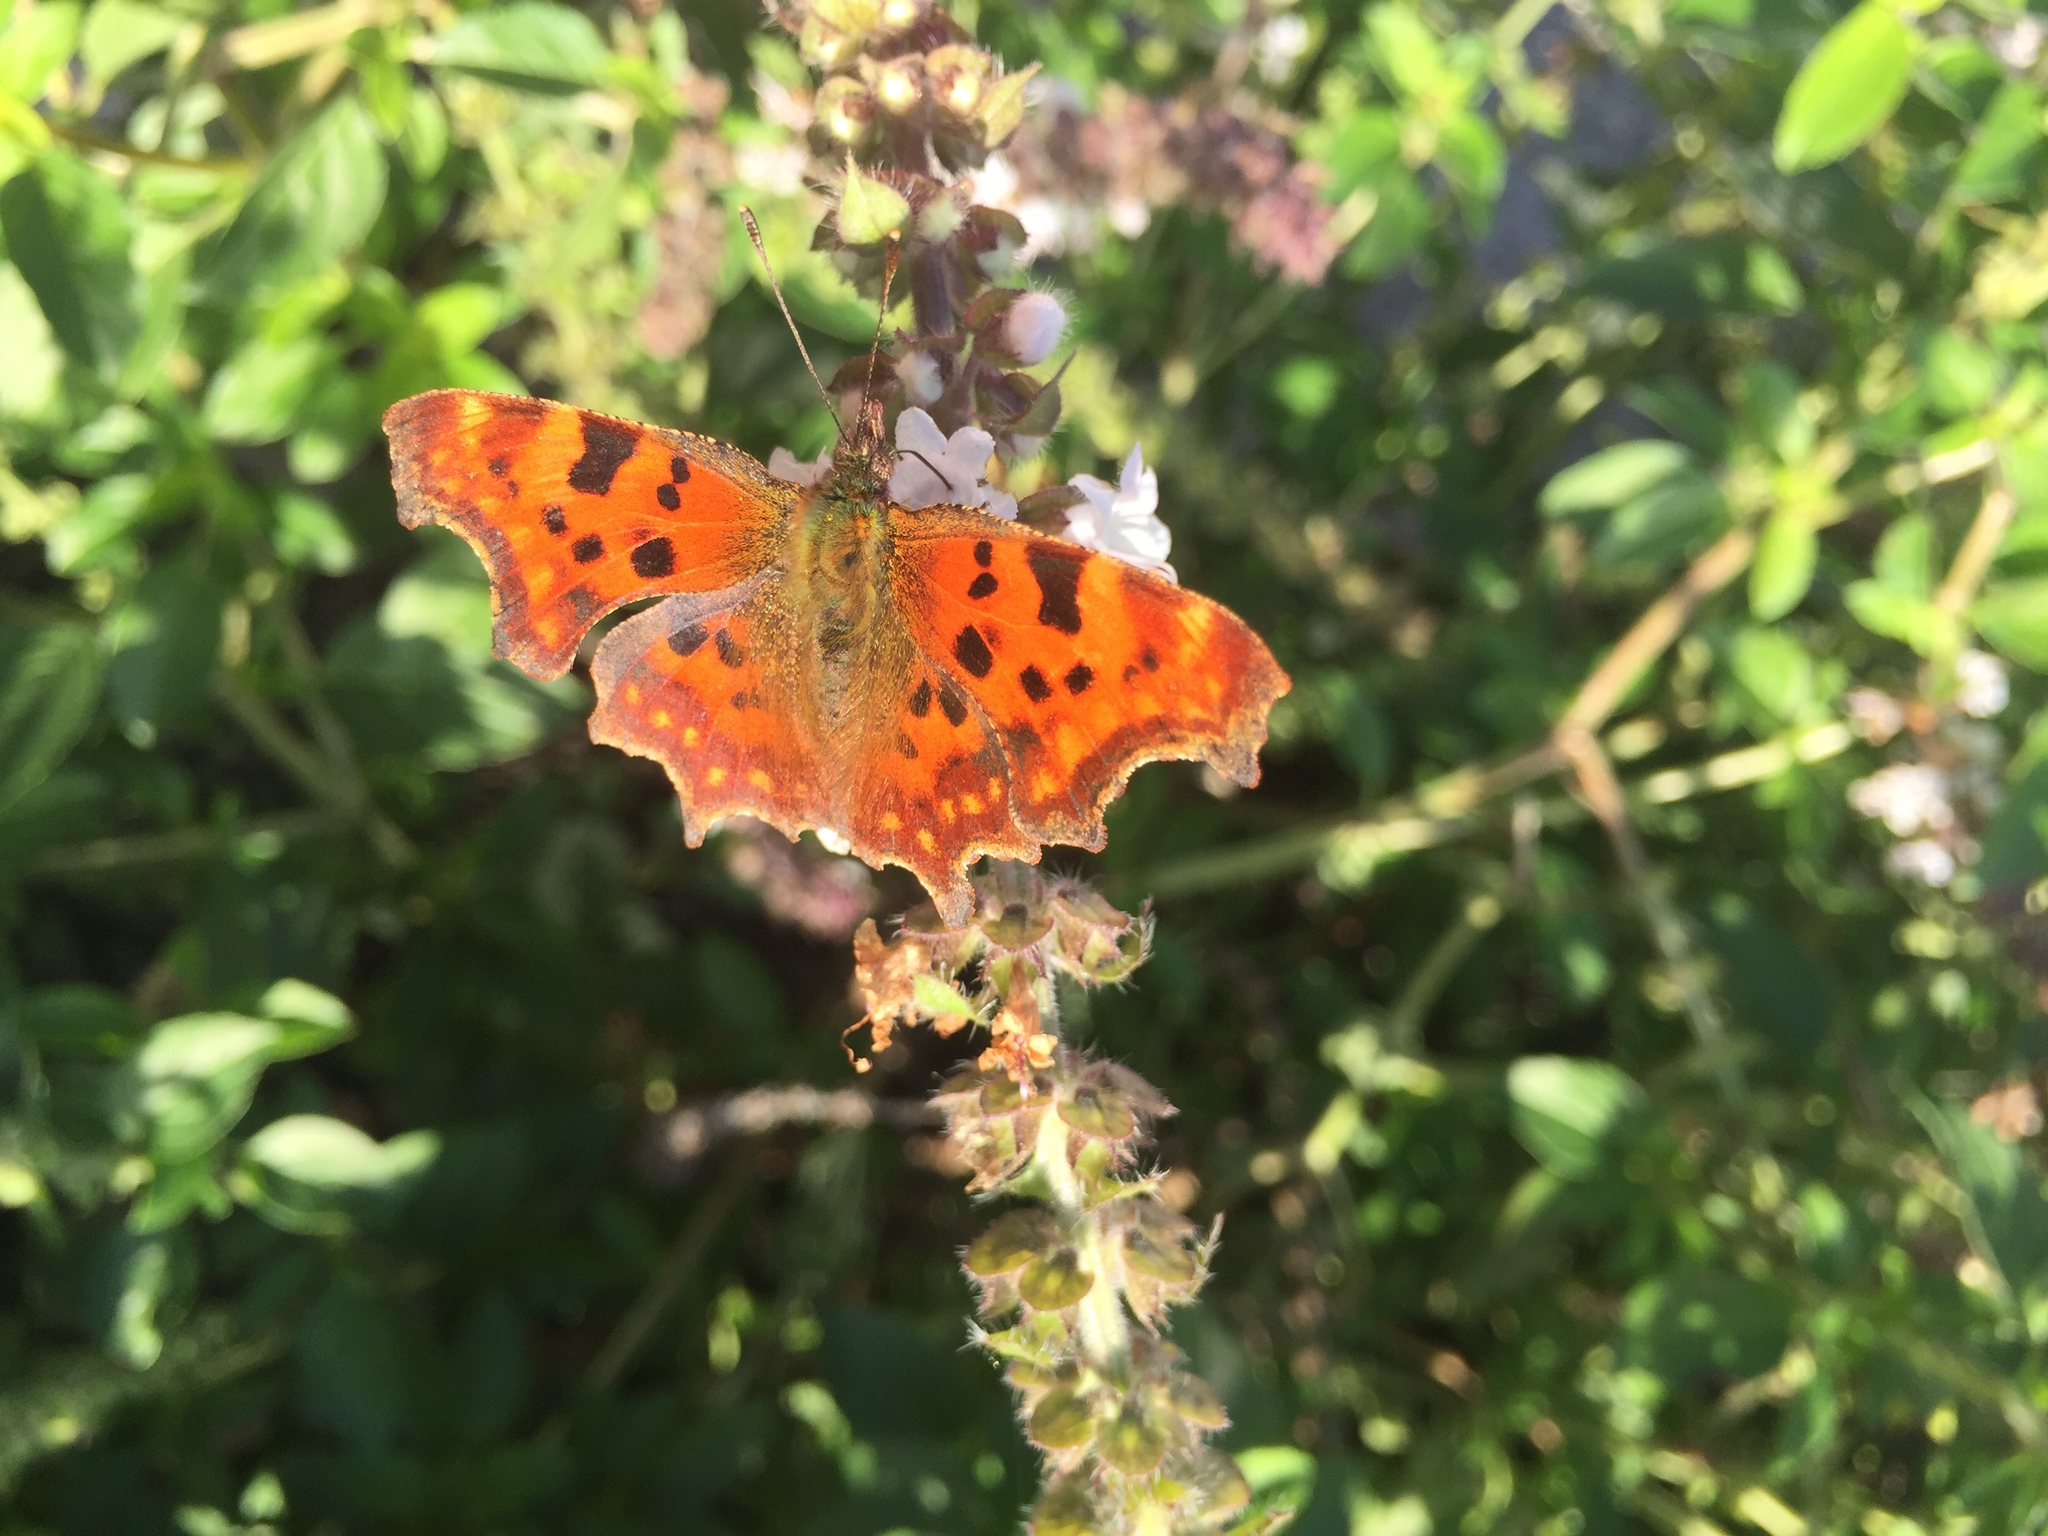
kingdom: Animalia
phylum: Arthropoda
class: Insecta
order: Lepidoptera
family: Nymphalidae
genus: Polygonia
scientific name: Polygonia c-album
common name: Comma
